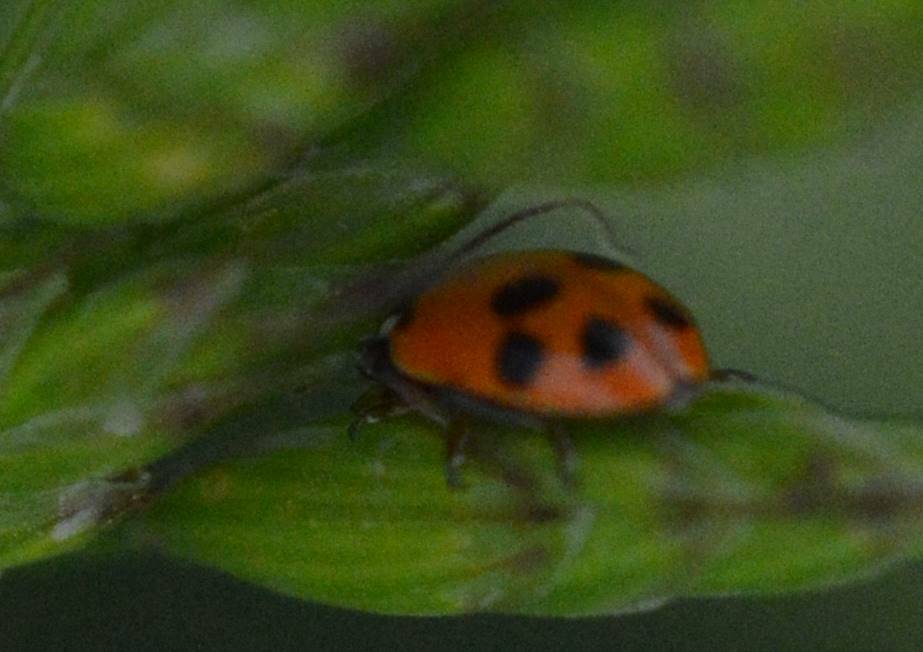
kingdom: Animalia
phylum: Arthropoda
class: Insecta
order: Coleoptera
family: Coccinellidae
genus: Hippodamia
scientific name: Hippodamia variegata
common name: Ladybird beetle
